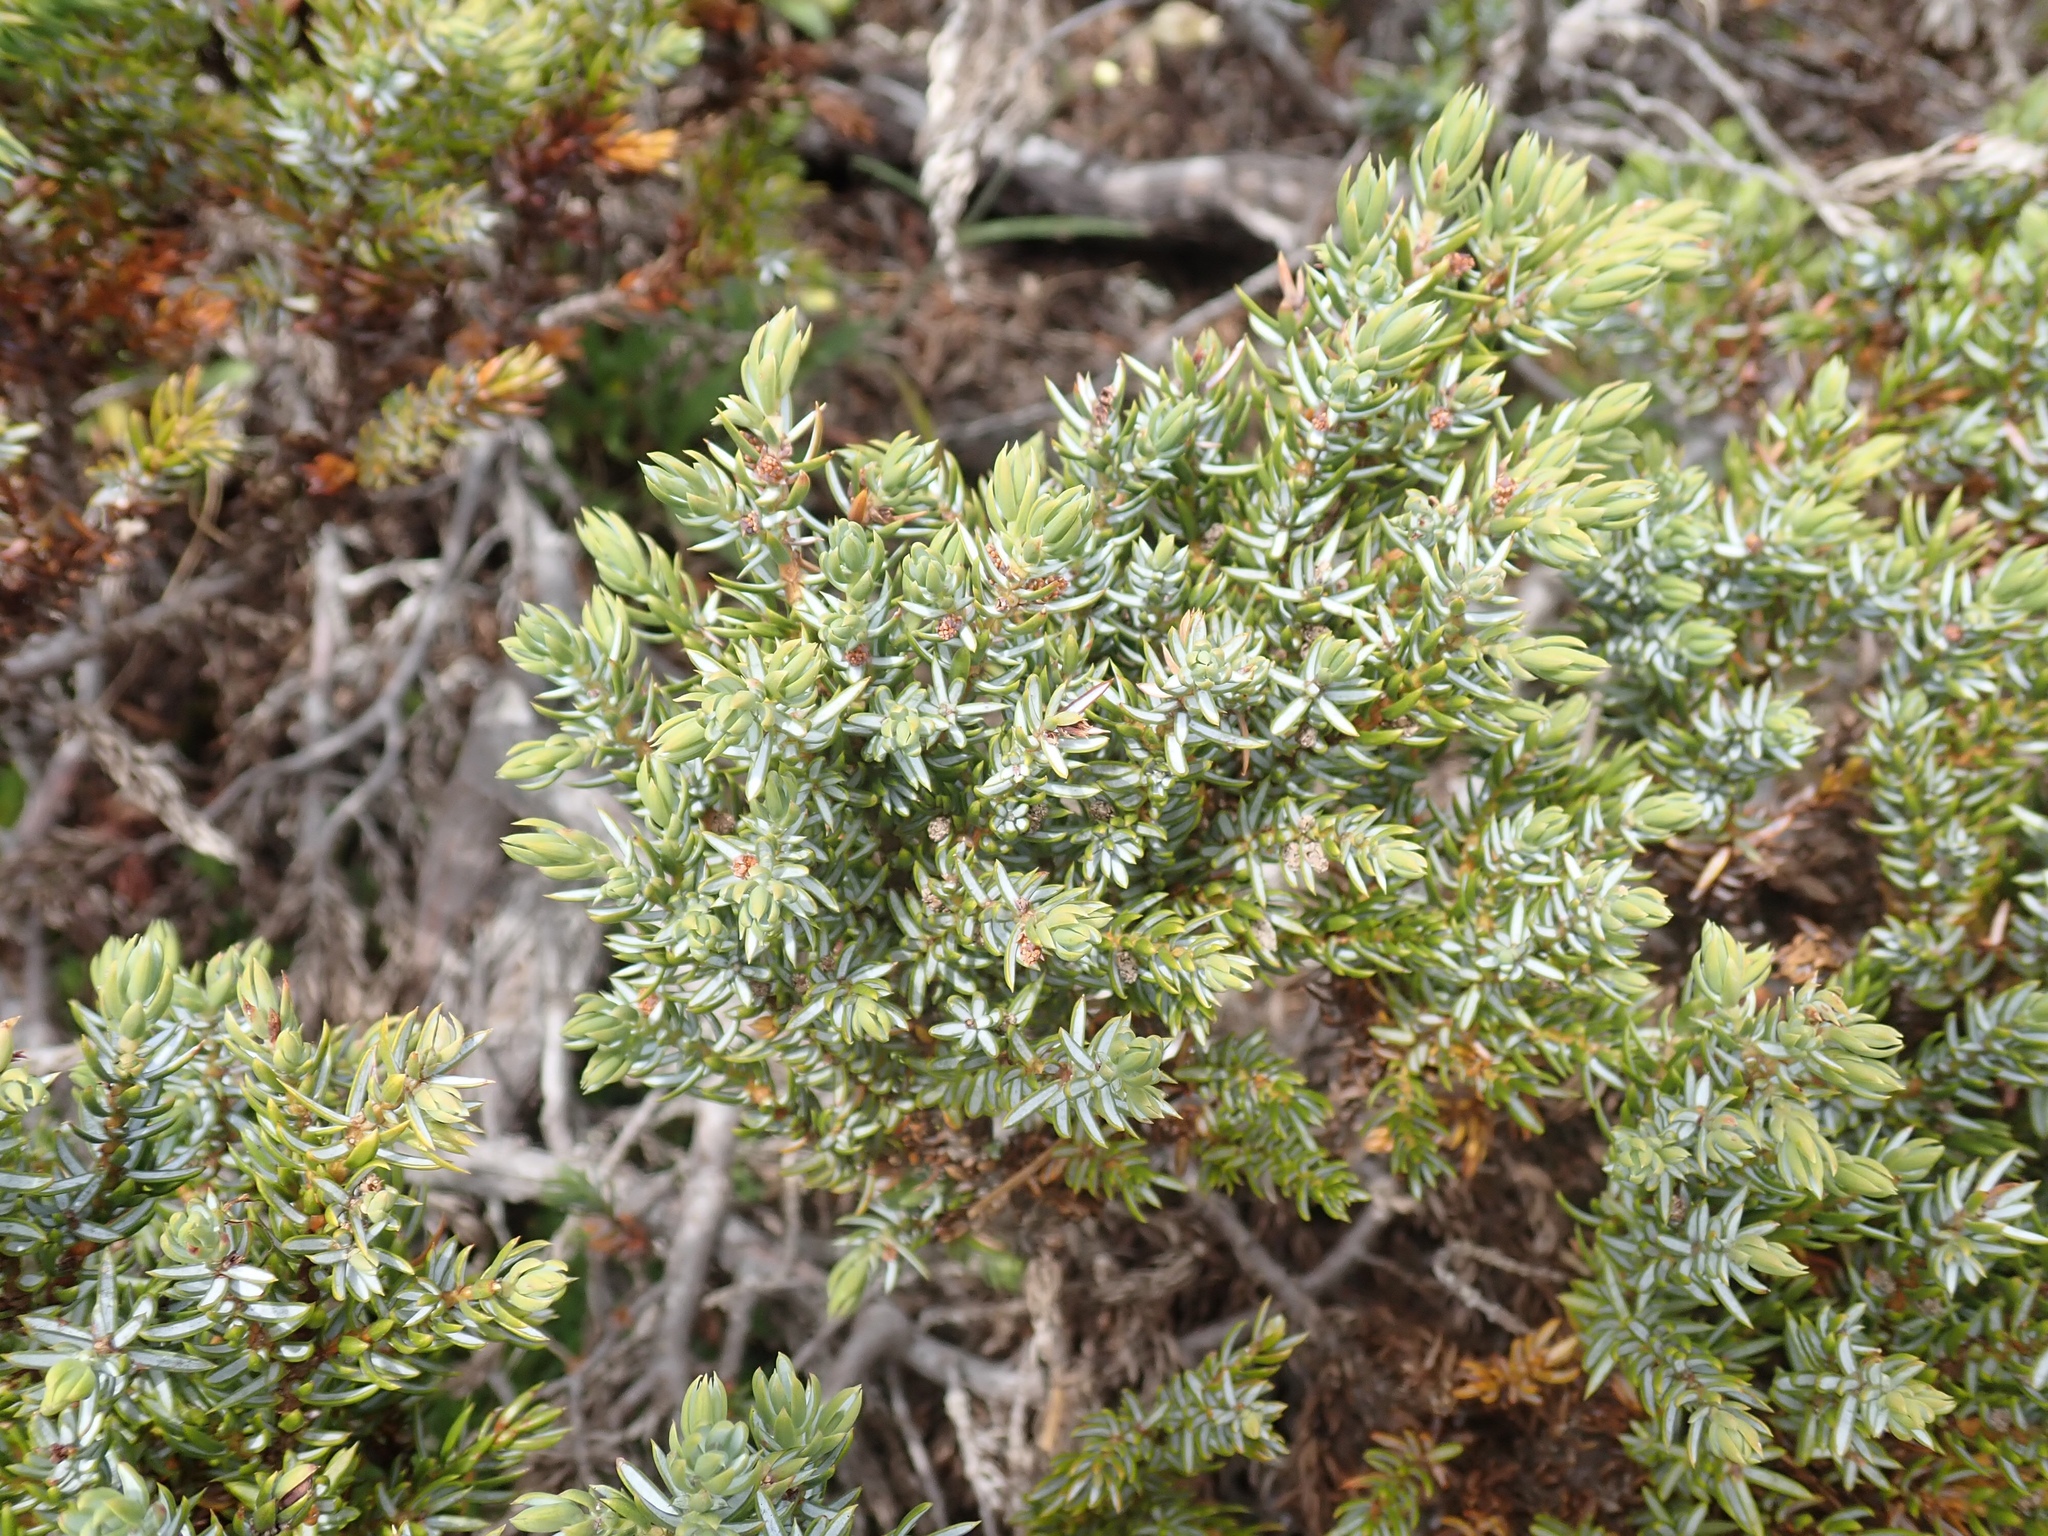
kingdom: Plantae
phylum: Tracheophyta
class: Pinopsida
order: Pinales
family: Cupressaceae
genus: Juniperus
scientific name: Juniperus communis
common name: Common juniper
